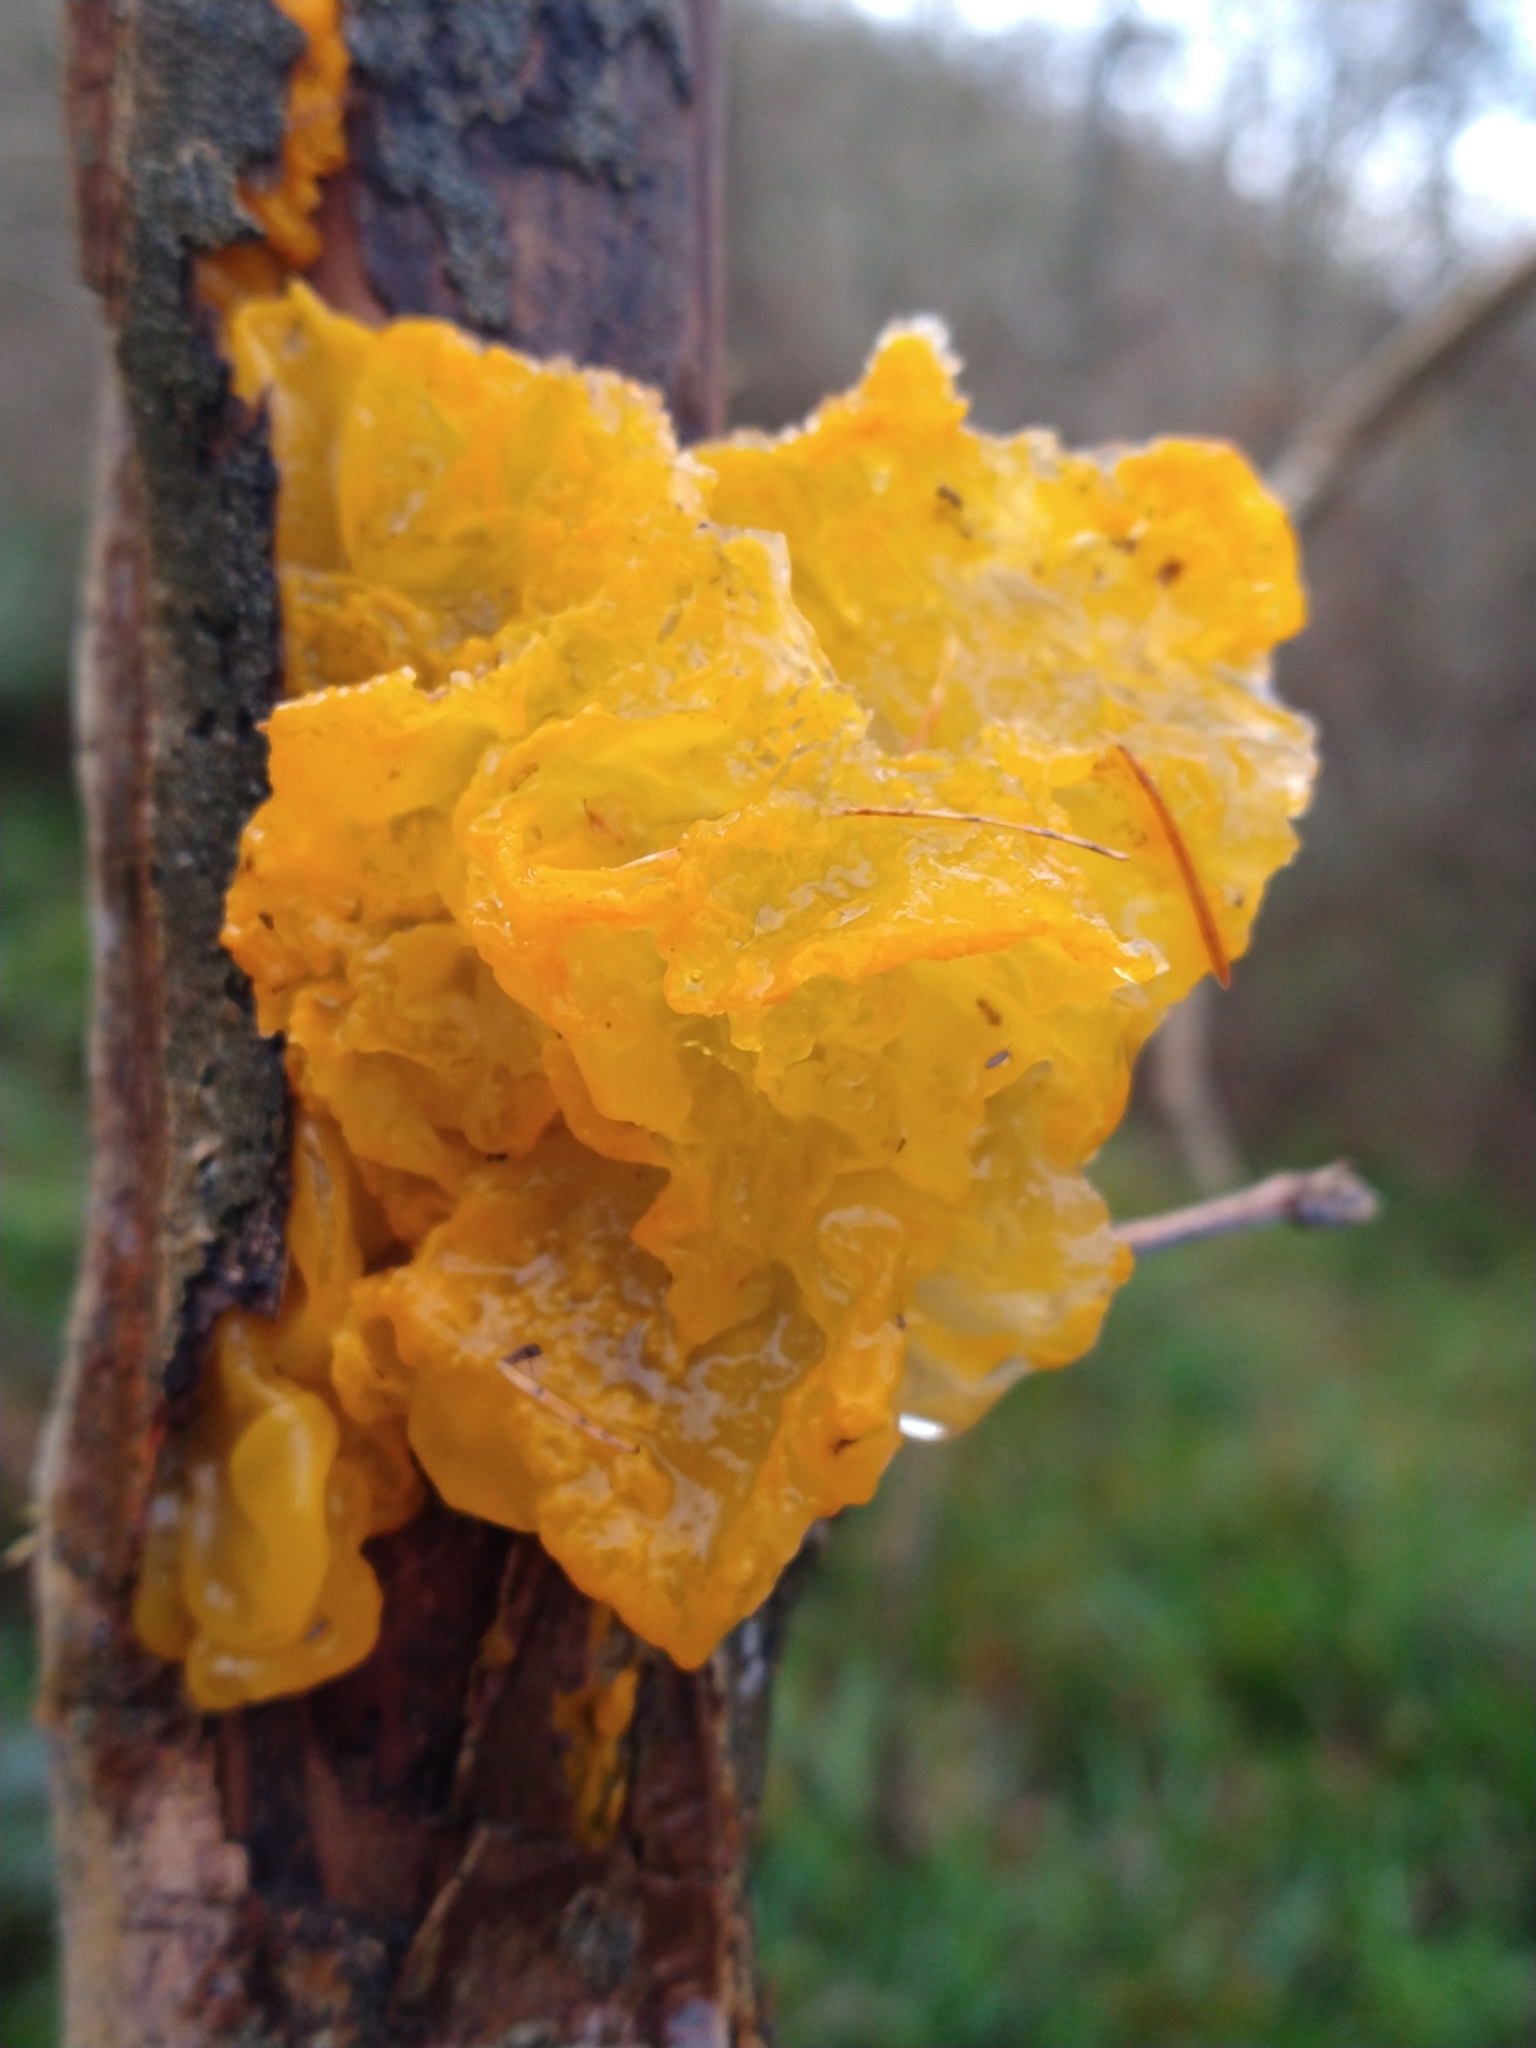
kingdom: Fungi
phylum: Basidiomycota
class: Tremellomycetes
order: Tremellales
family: Tremellaceae
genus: Tremella
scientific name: Tremella mesenterica
